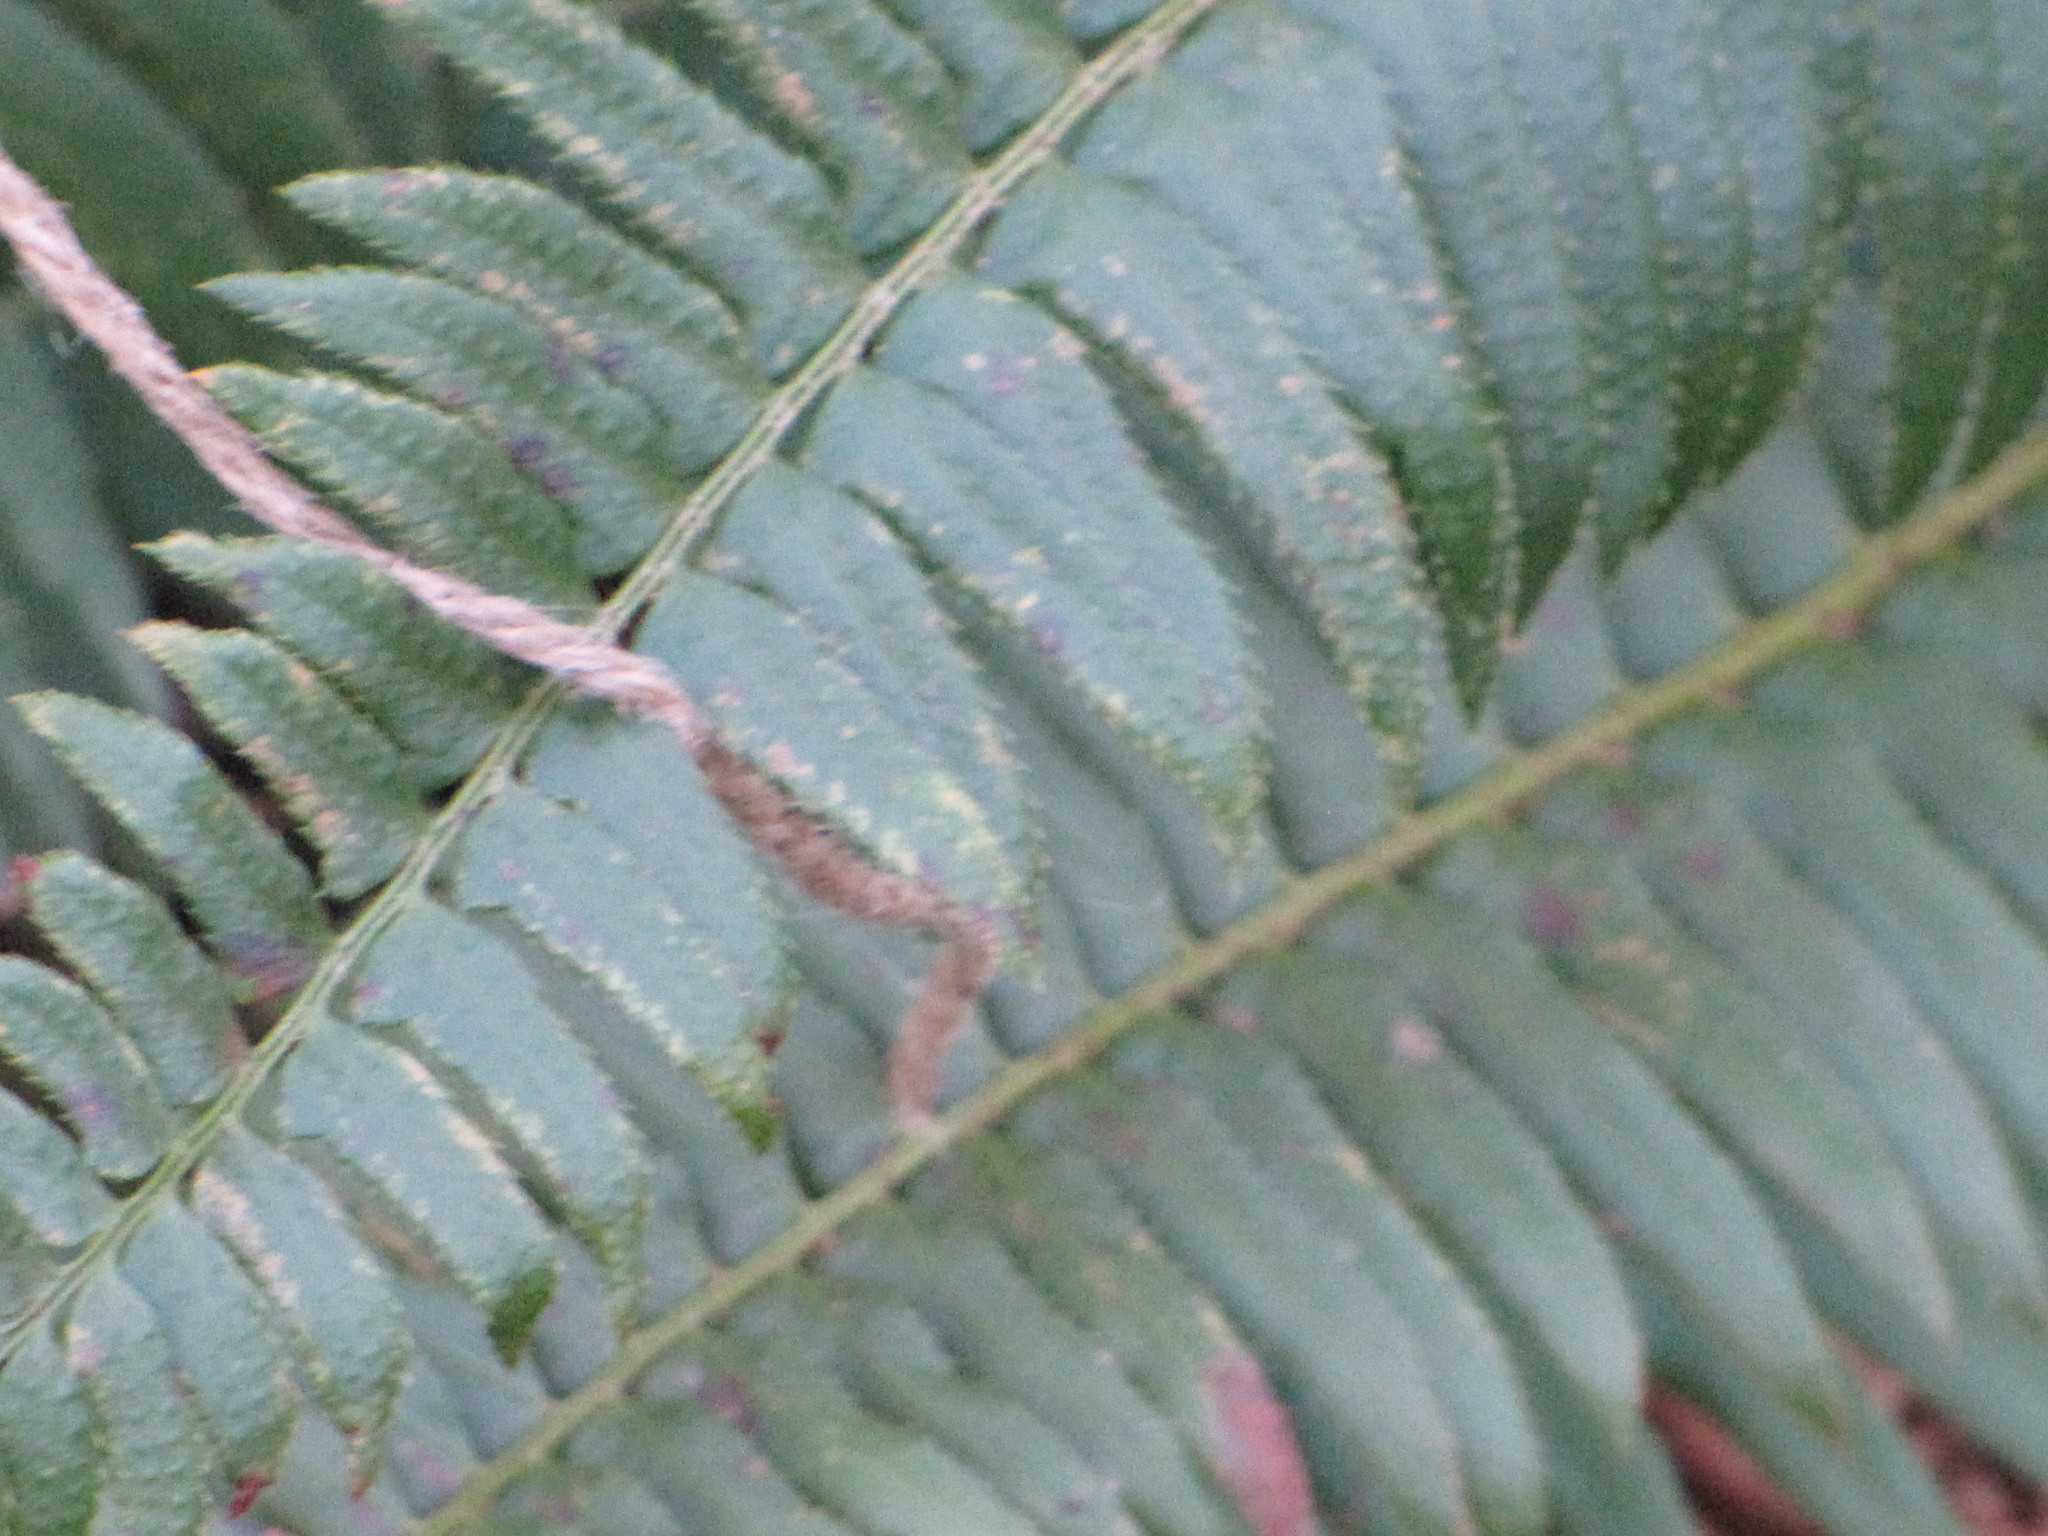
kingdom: Plantae
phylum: Tracheophyta
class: Polypodiopsida
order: Polypodiales
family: Dryopteridaceae
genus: Polystichum
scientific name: Polystichum munitum
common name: Western sword-fern
